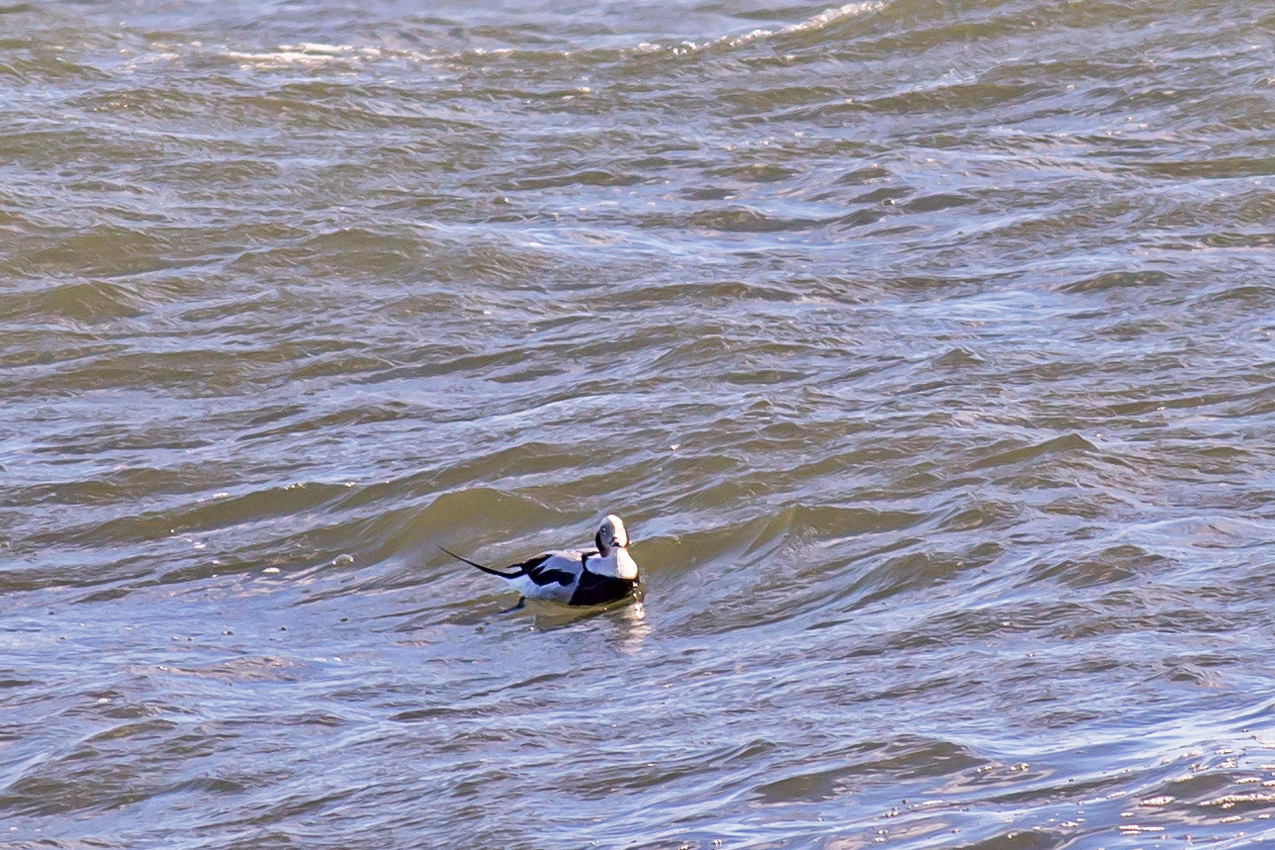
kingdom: Animalia
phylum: Chordata
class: Aves
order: Anseriformes
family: Anatidae
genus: Clangula
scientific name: Clangula hyemalis
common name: Long-tailed duck
